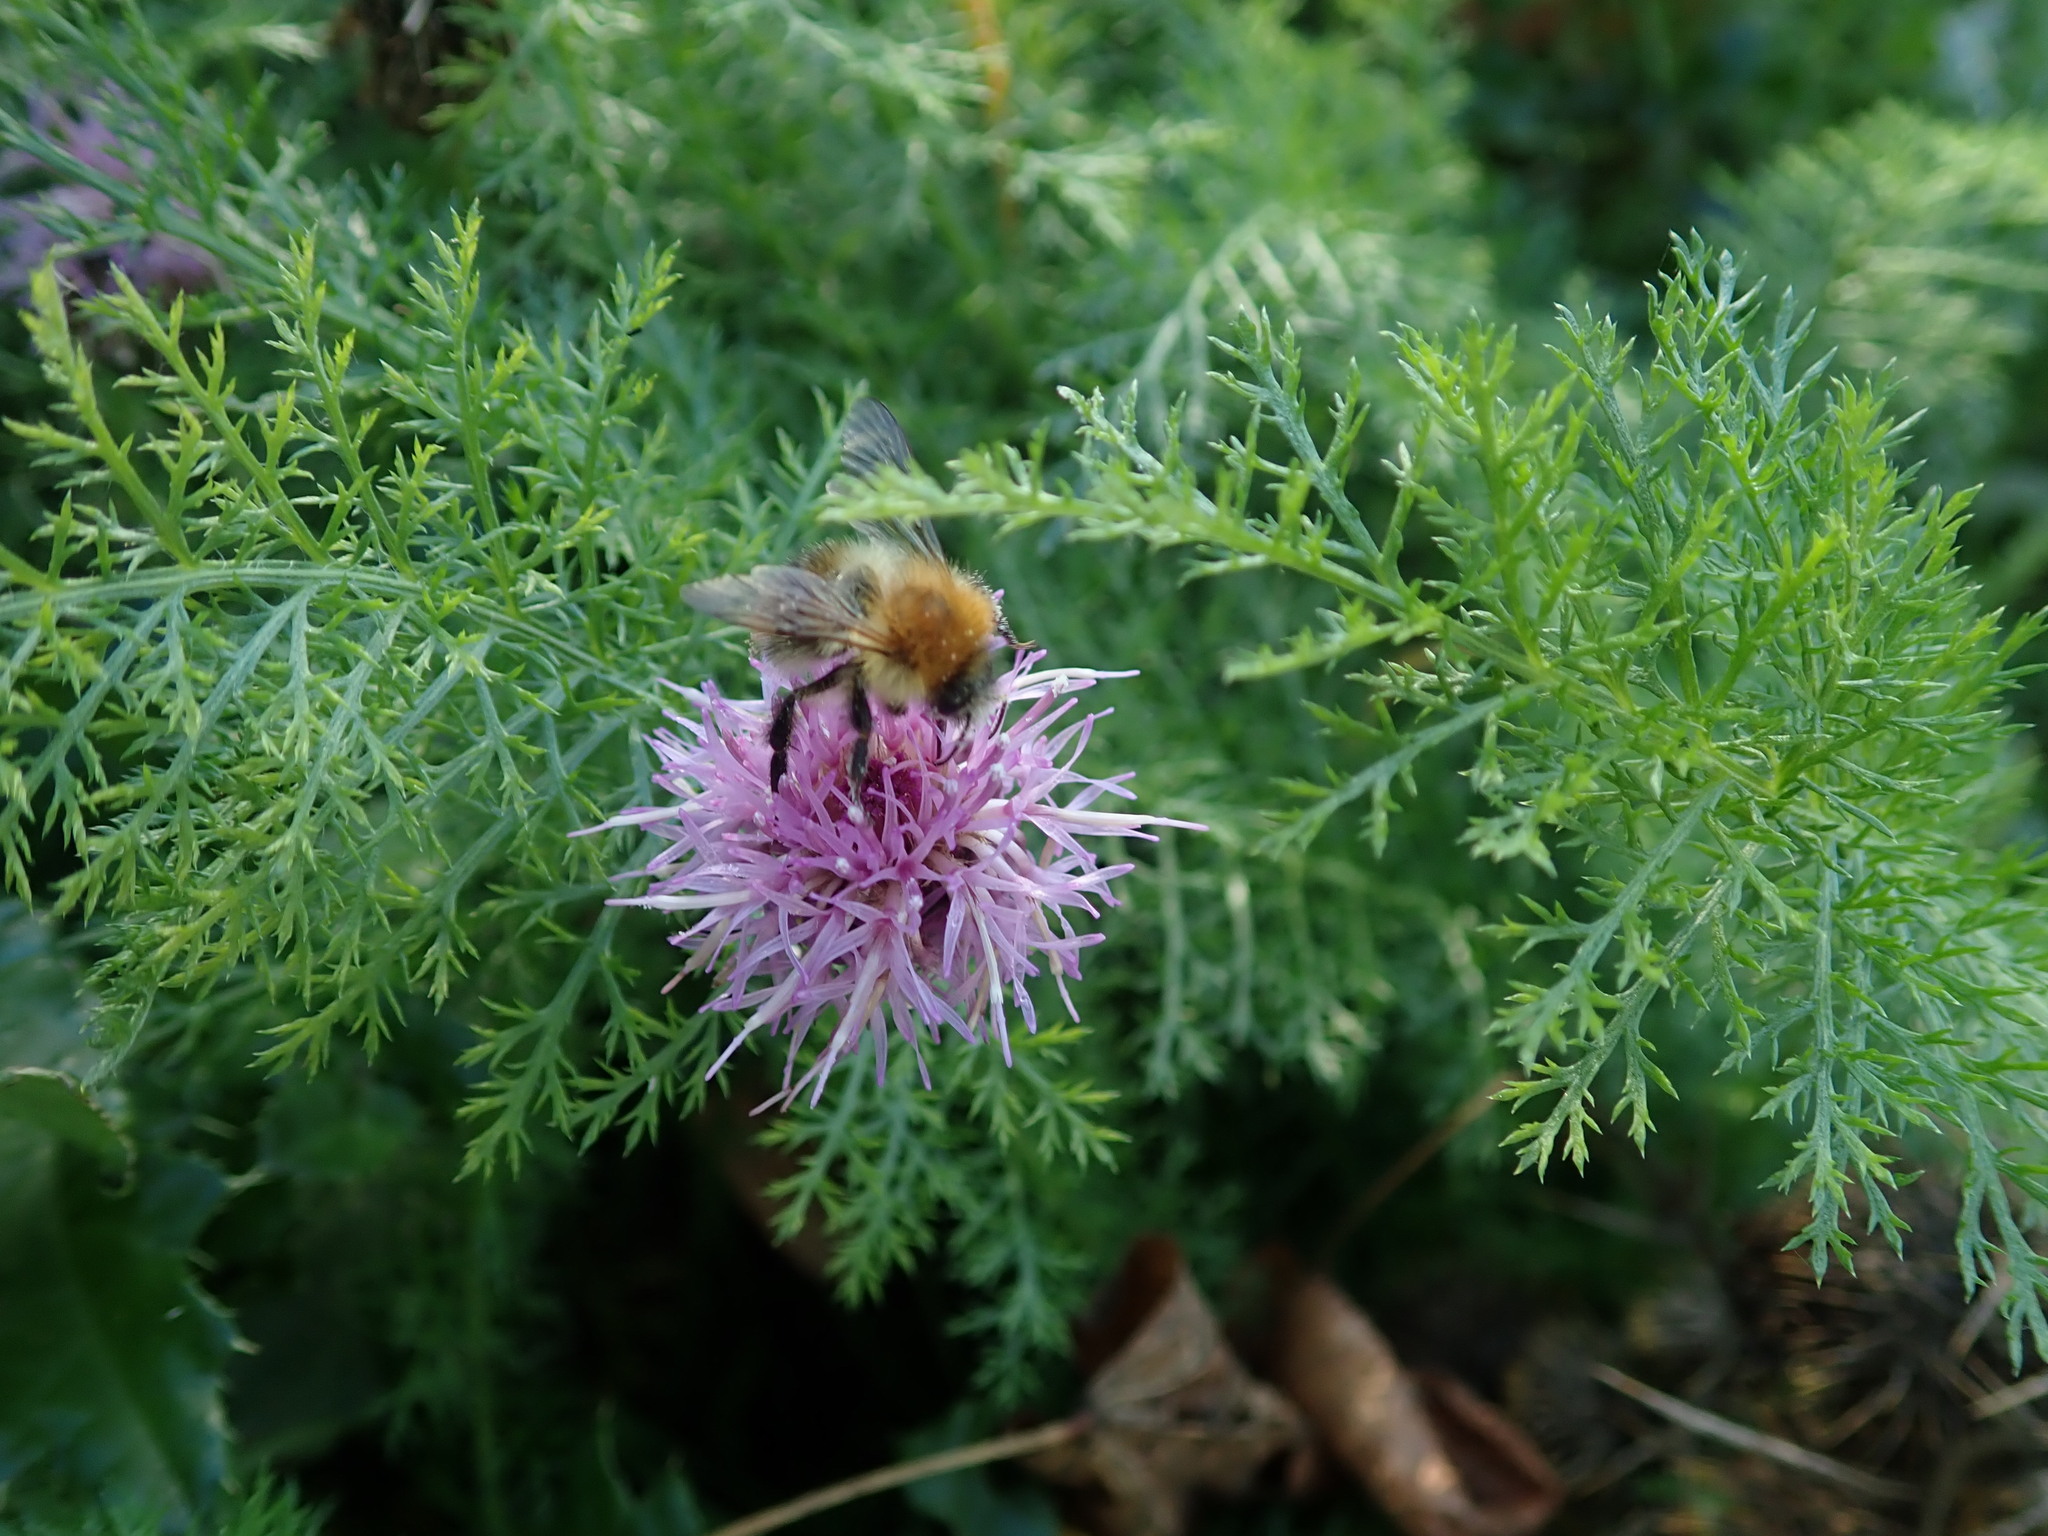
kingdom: Animalia
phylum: Arthropoda
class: Insecta
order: Hymenoptera
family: Apidae
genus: Bombus
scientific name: Bombus pascuorum
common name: Common carder bee
